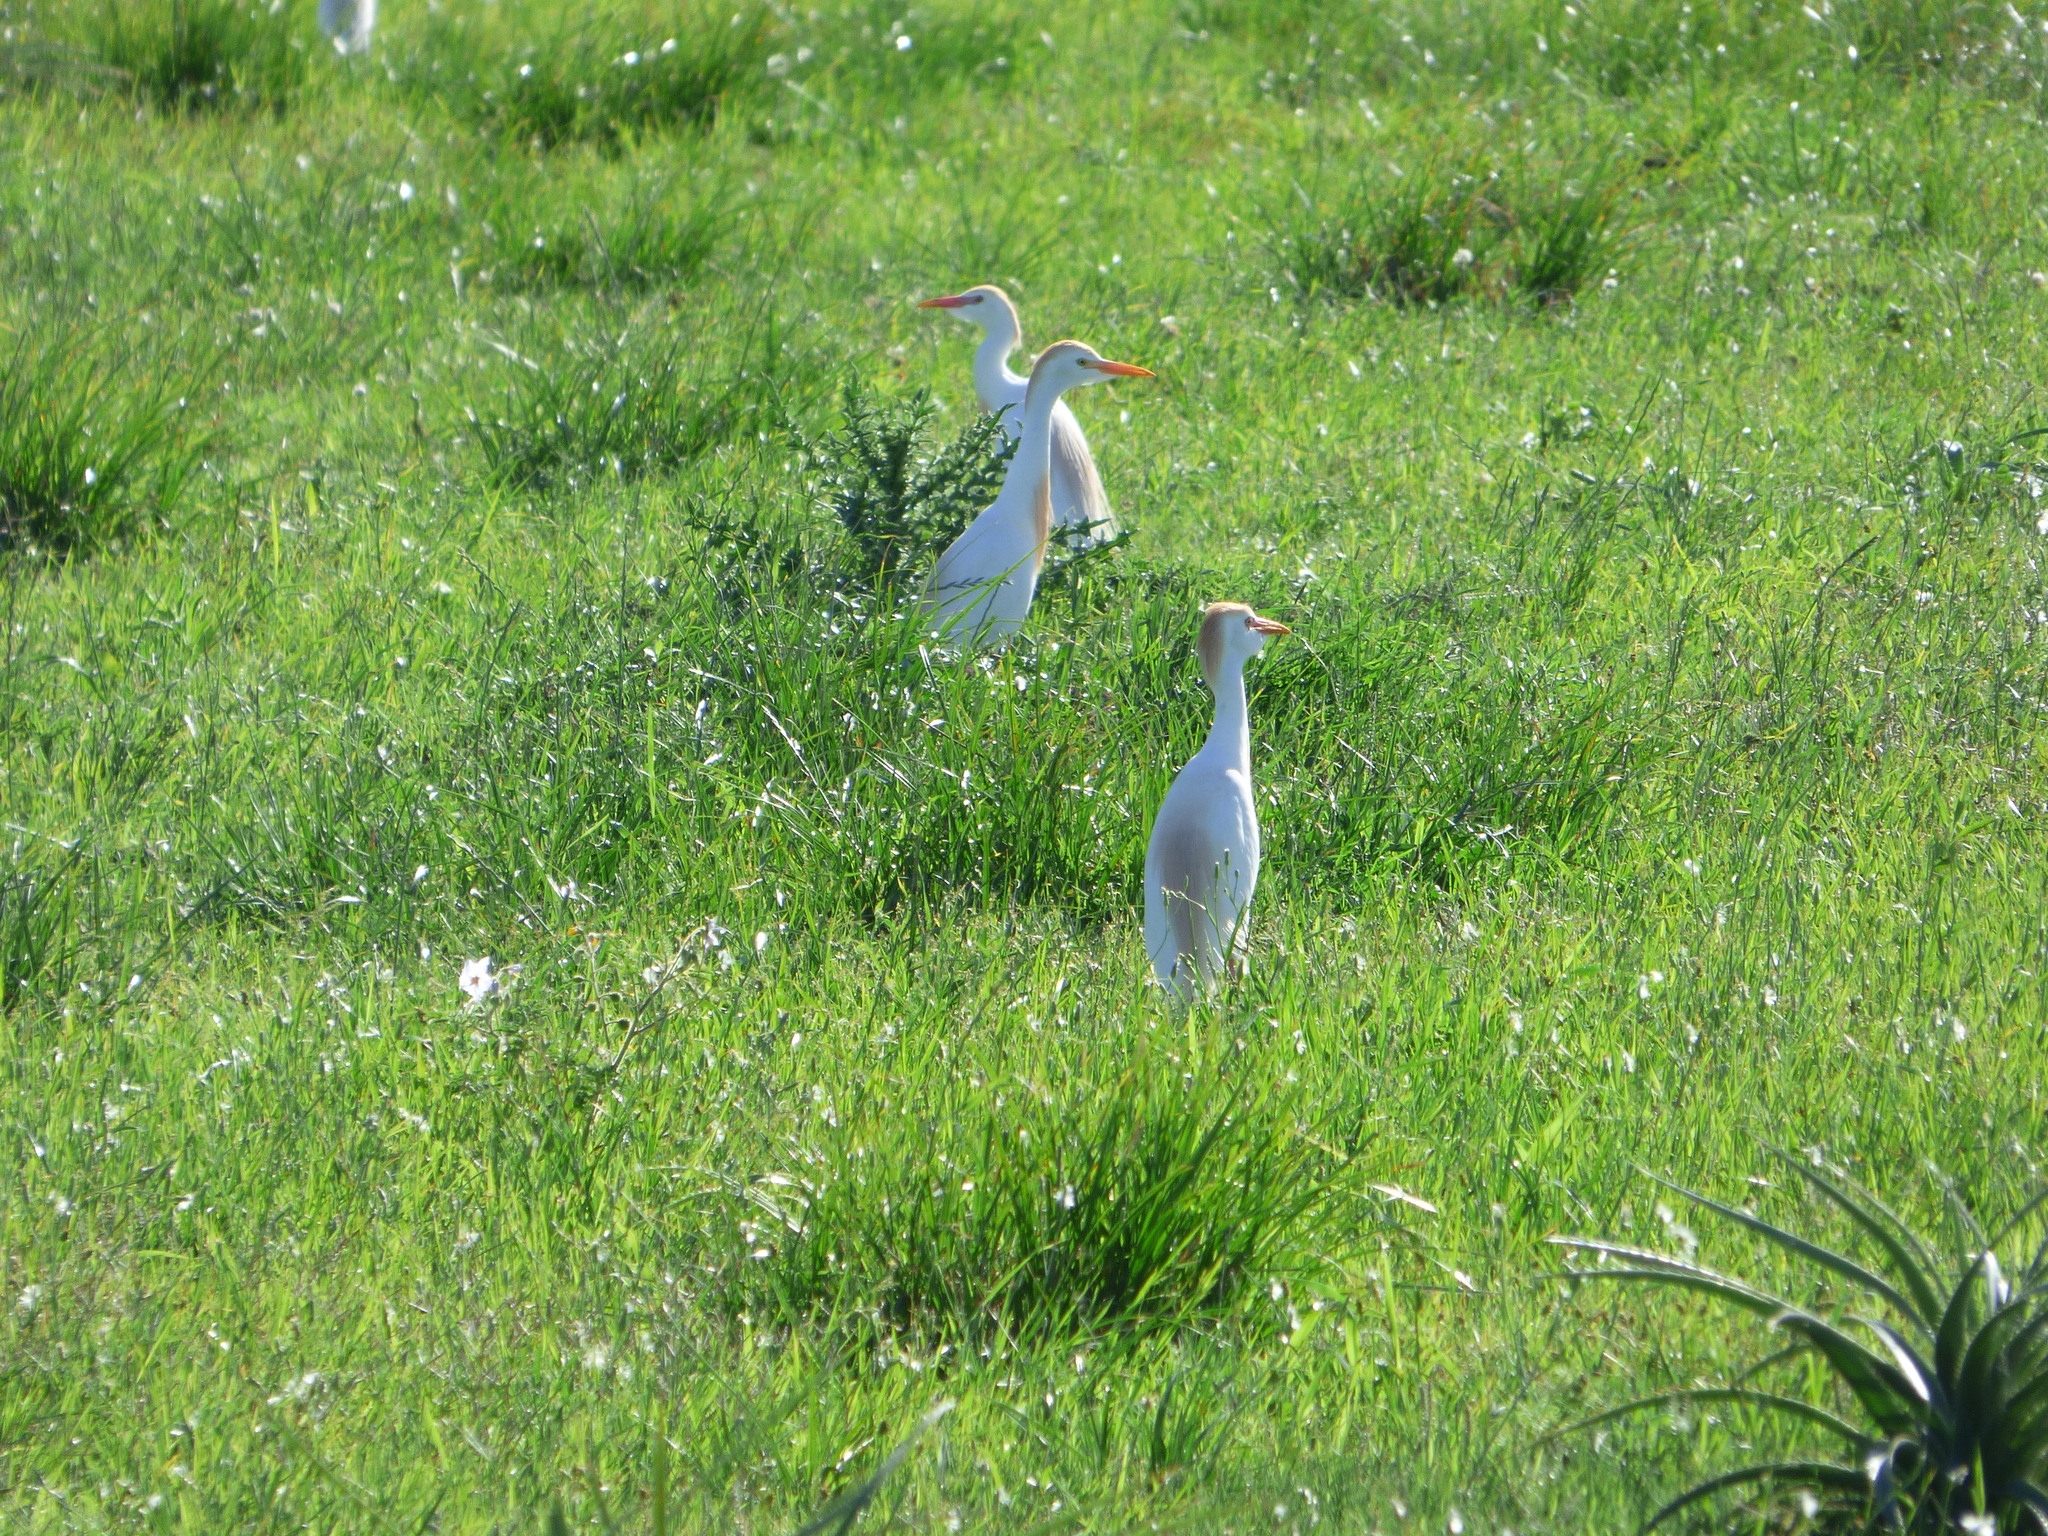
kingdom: Animalia
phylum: Chordata
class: Aves
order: Pelecaniformes
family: Ardeidae
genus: Bubulcus
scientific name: Bubulcus ibis
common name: Cattle egret
